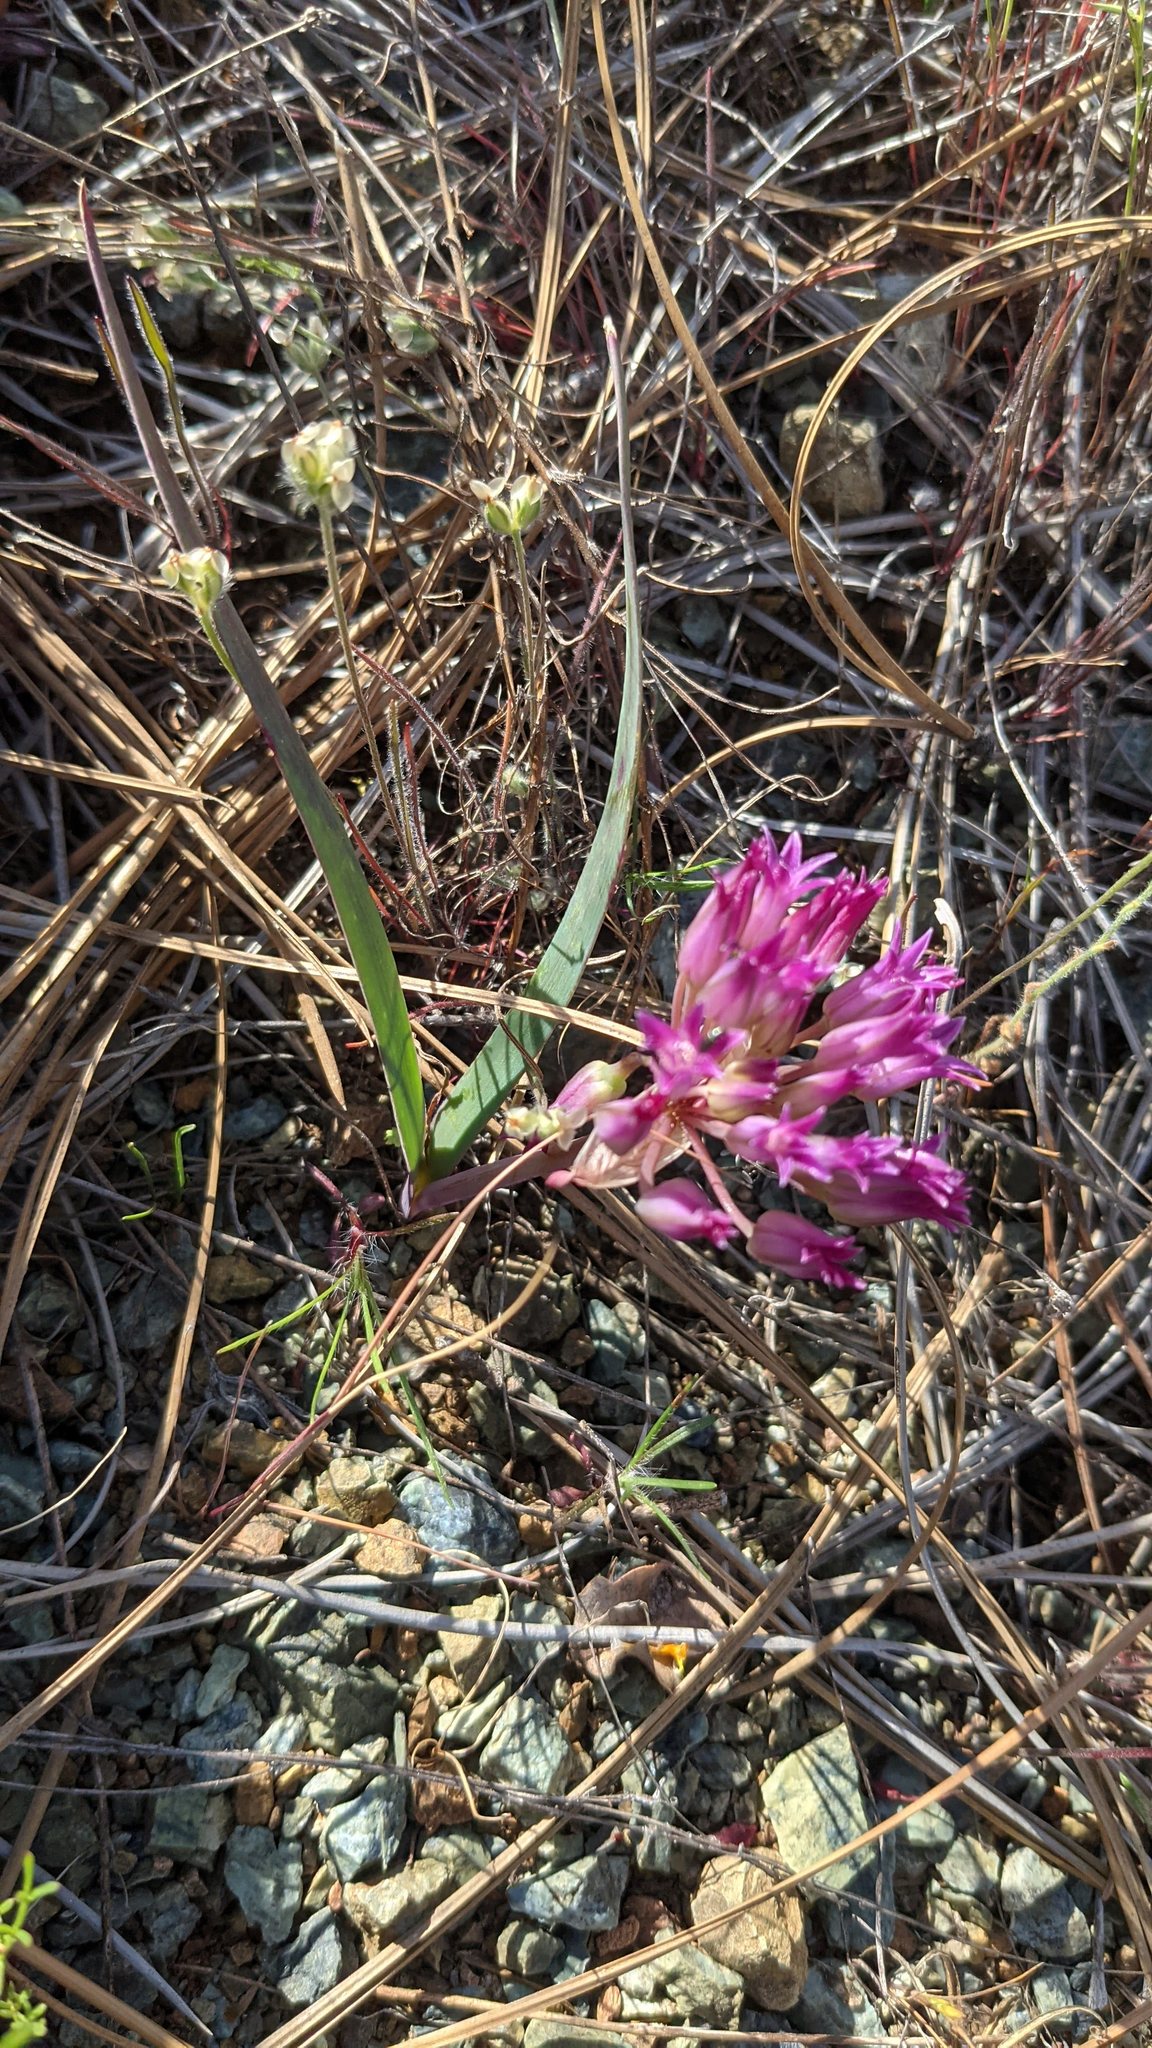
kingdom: Plantae
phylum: Tracheophyta
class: Liliopsida
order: Asparagales
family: Amaryllidaceae
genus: Allium
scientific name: Allium falcifolium
